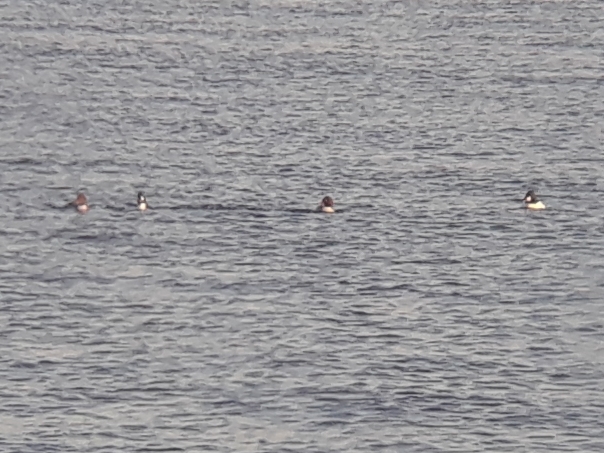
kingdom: Animalia
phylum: Chordata
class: Aves
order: Anseriformes
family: Anatidae
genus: Bucephala
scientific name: Bucephala clangula
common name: Common goldeneye
